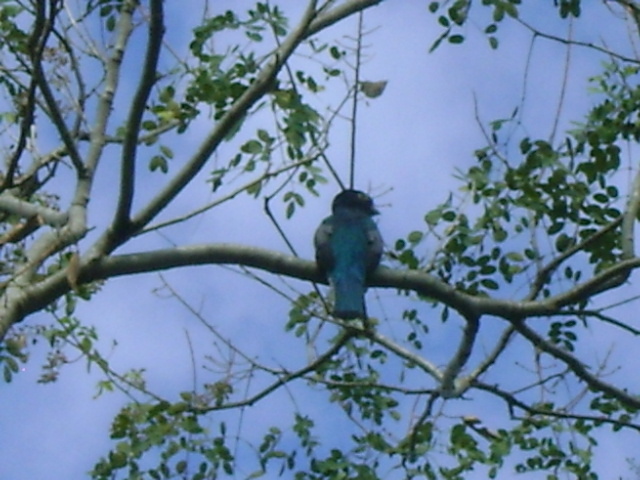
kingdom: Animalia
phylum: Chordata
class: Aves
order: Trogoniformes
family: Trogonidae
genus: Trogon
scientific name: Trogon caligatus
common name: Gartered trogon
